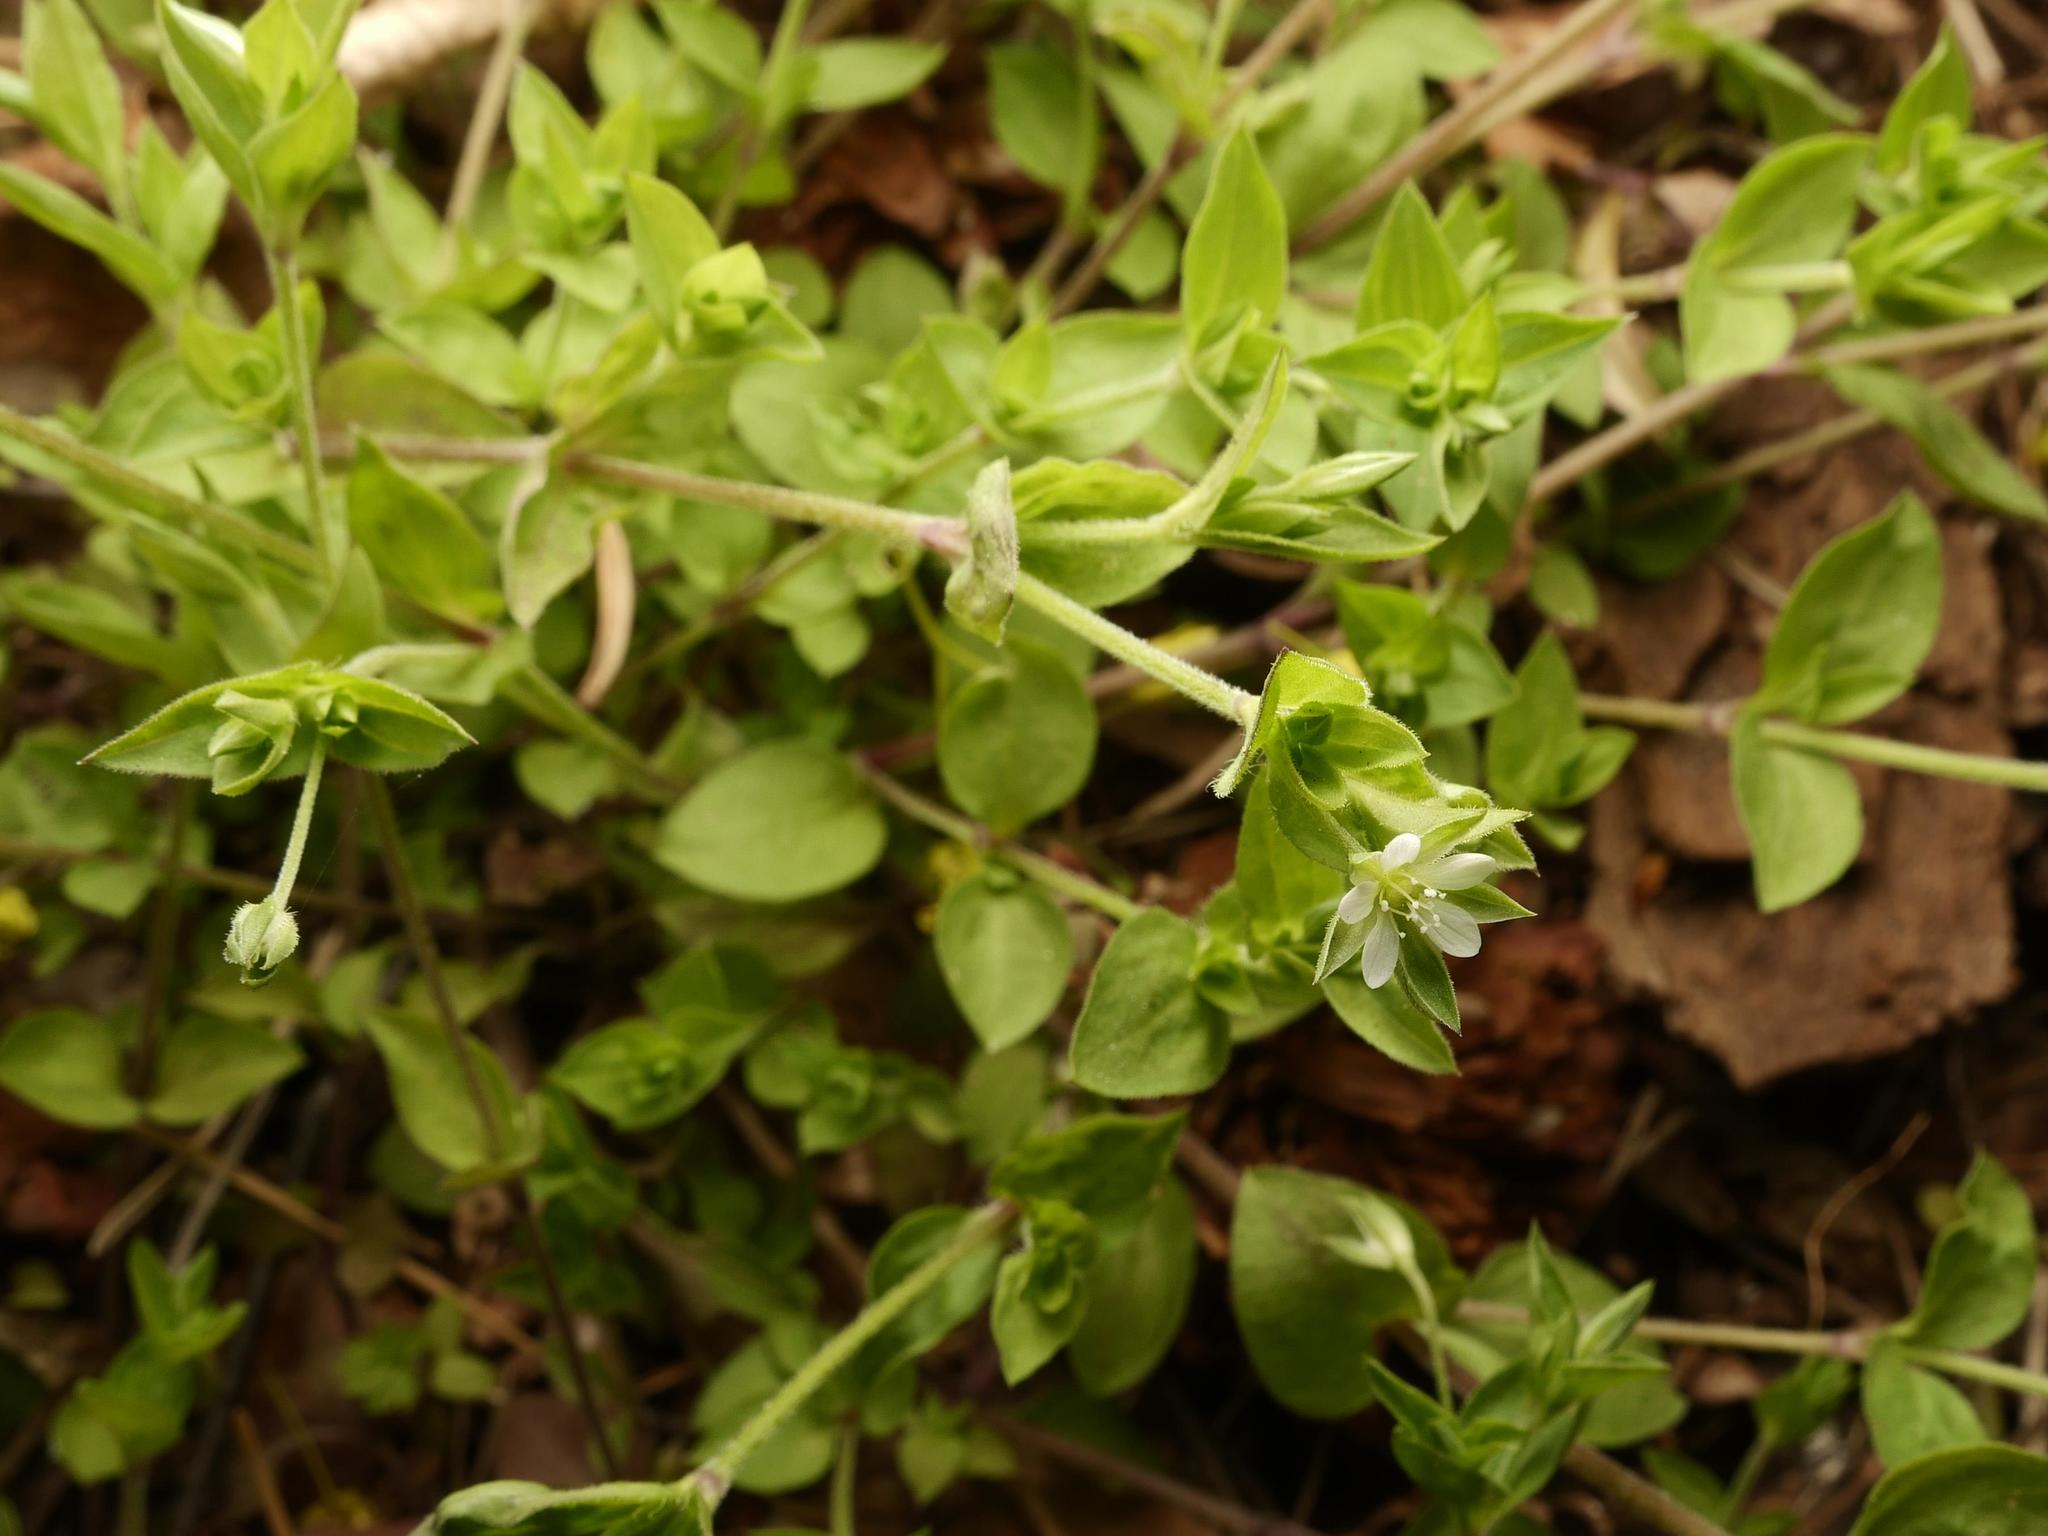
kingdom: Plantae
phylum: Tracheophyta
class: Magnoliopsida
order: Caryophyllales
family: Caryophyllaceae
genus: Moehringia
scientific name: Moehringia trinervia
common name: Three-nerved sandwort
